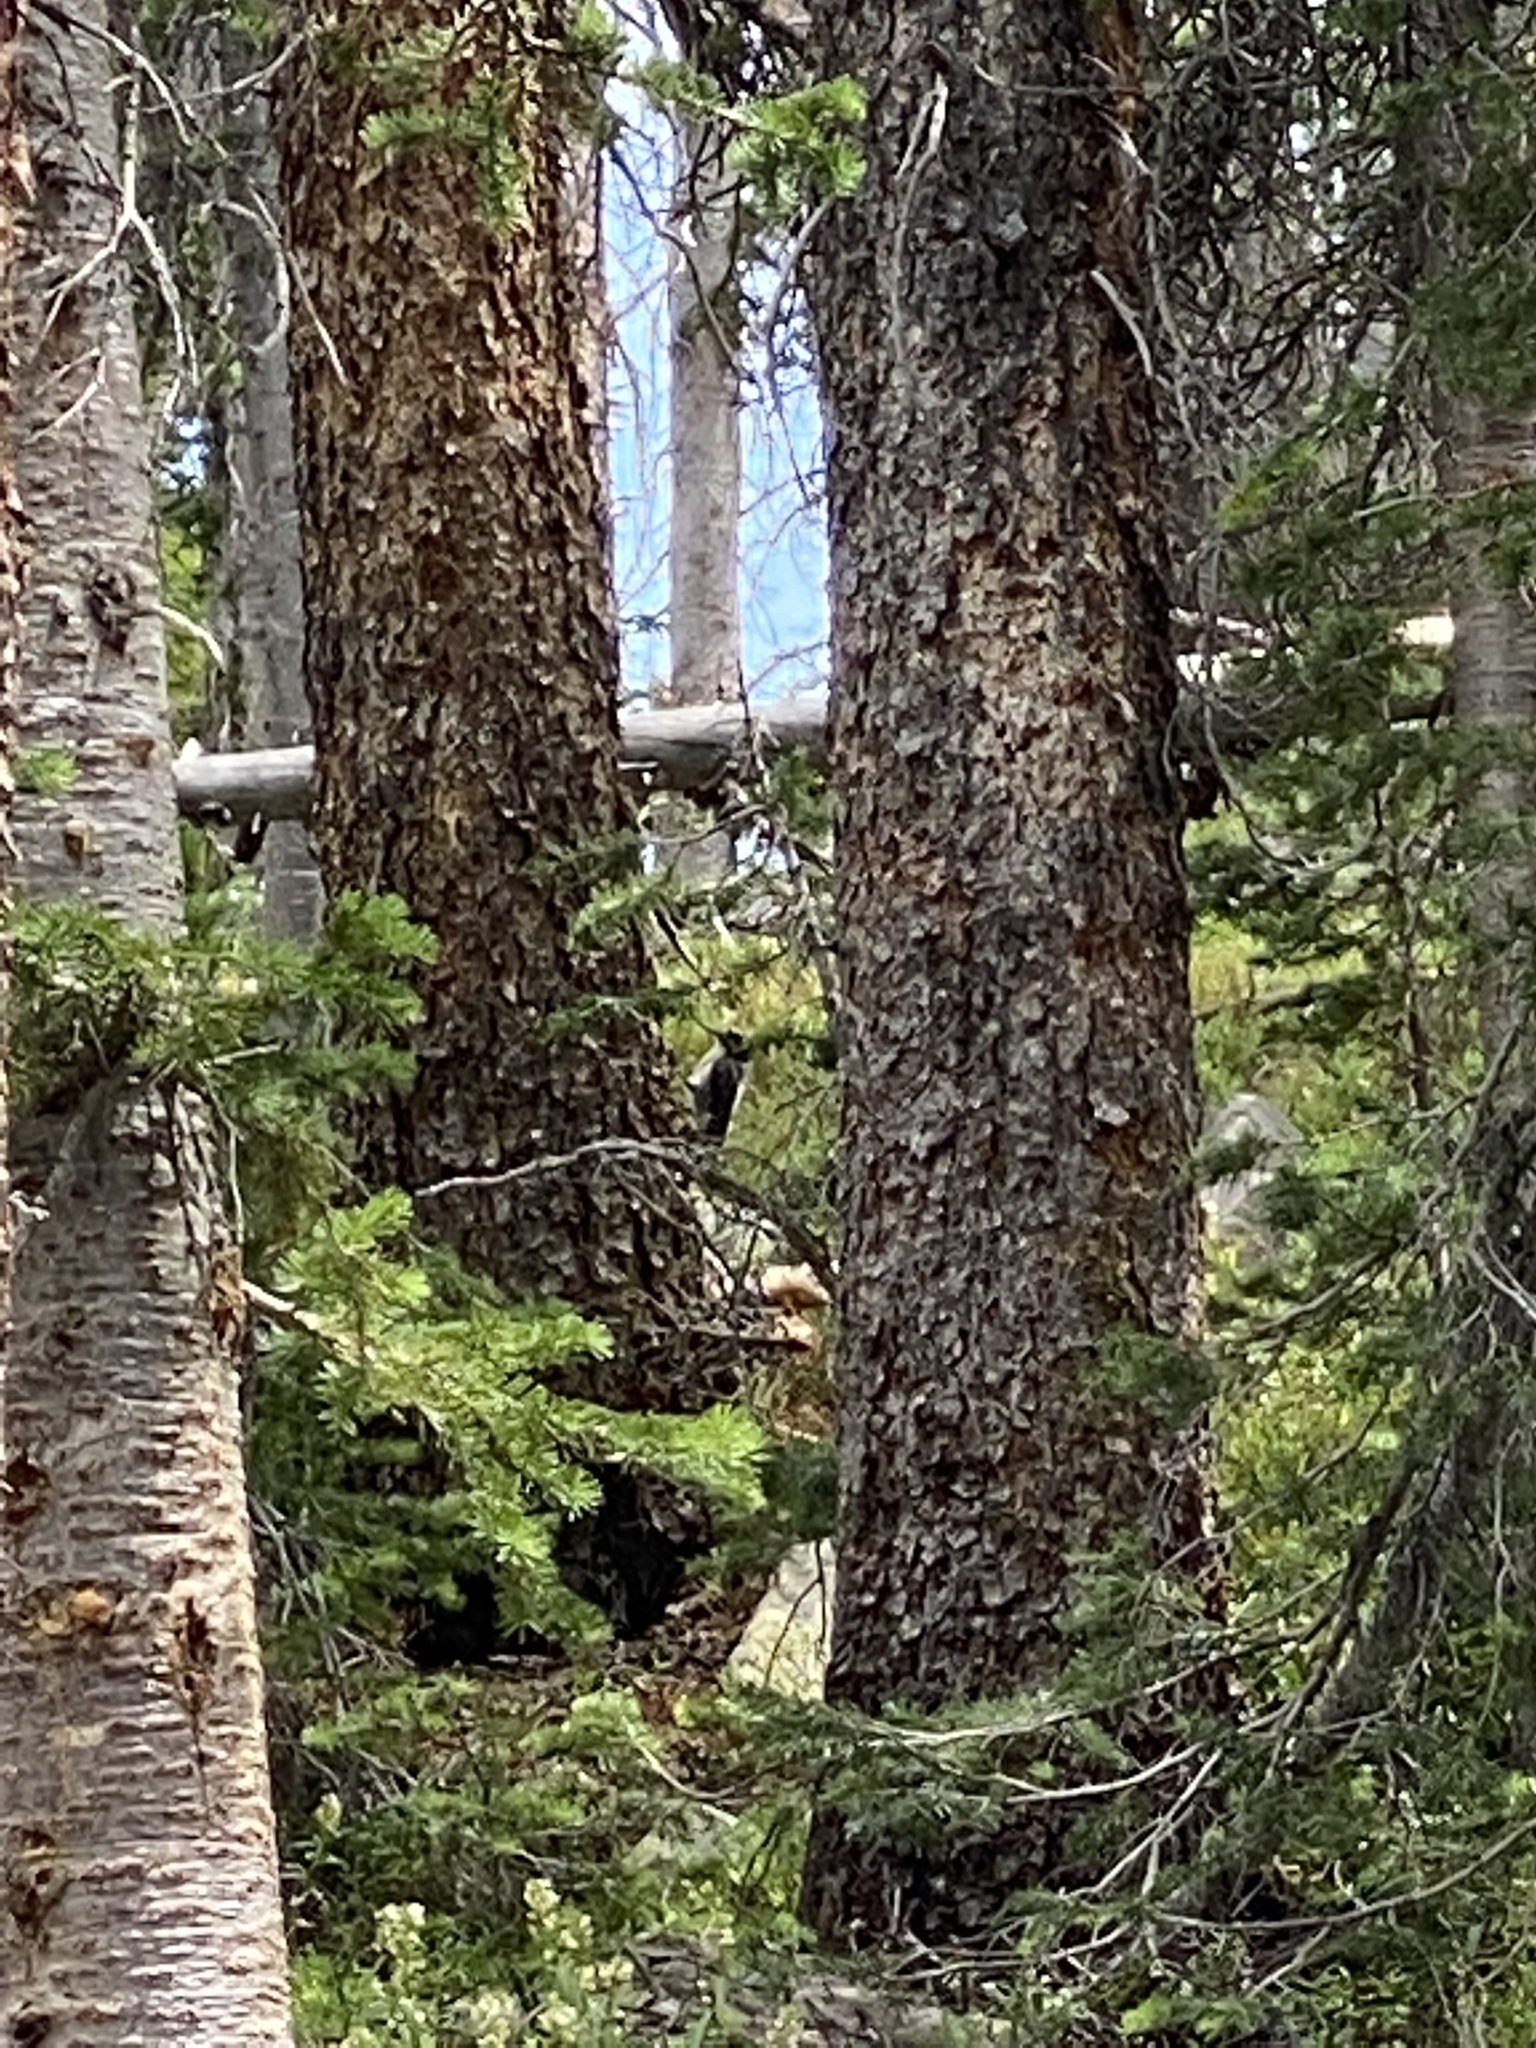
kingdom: Animalia
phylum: Chordata
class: Aves
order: Piciformes
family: Picidae
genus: Picoides
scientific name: Picoides dorsalis
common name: American three-toed woodpecker
